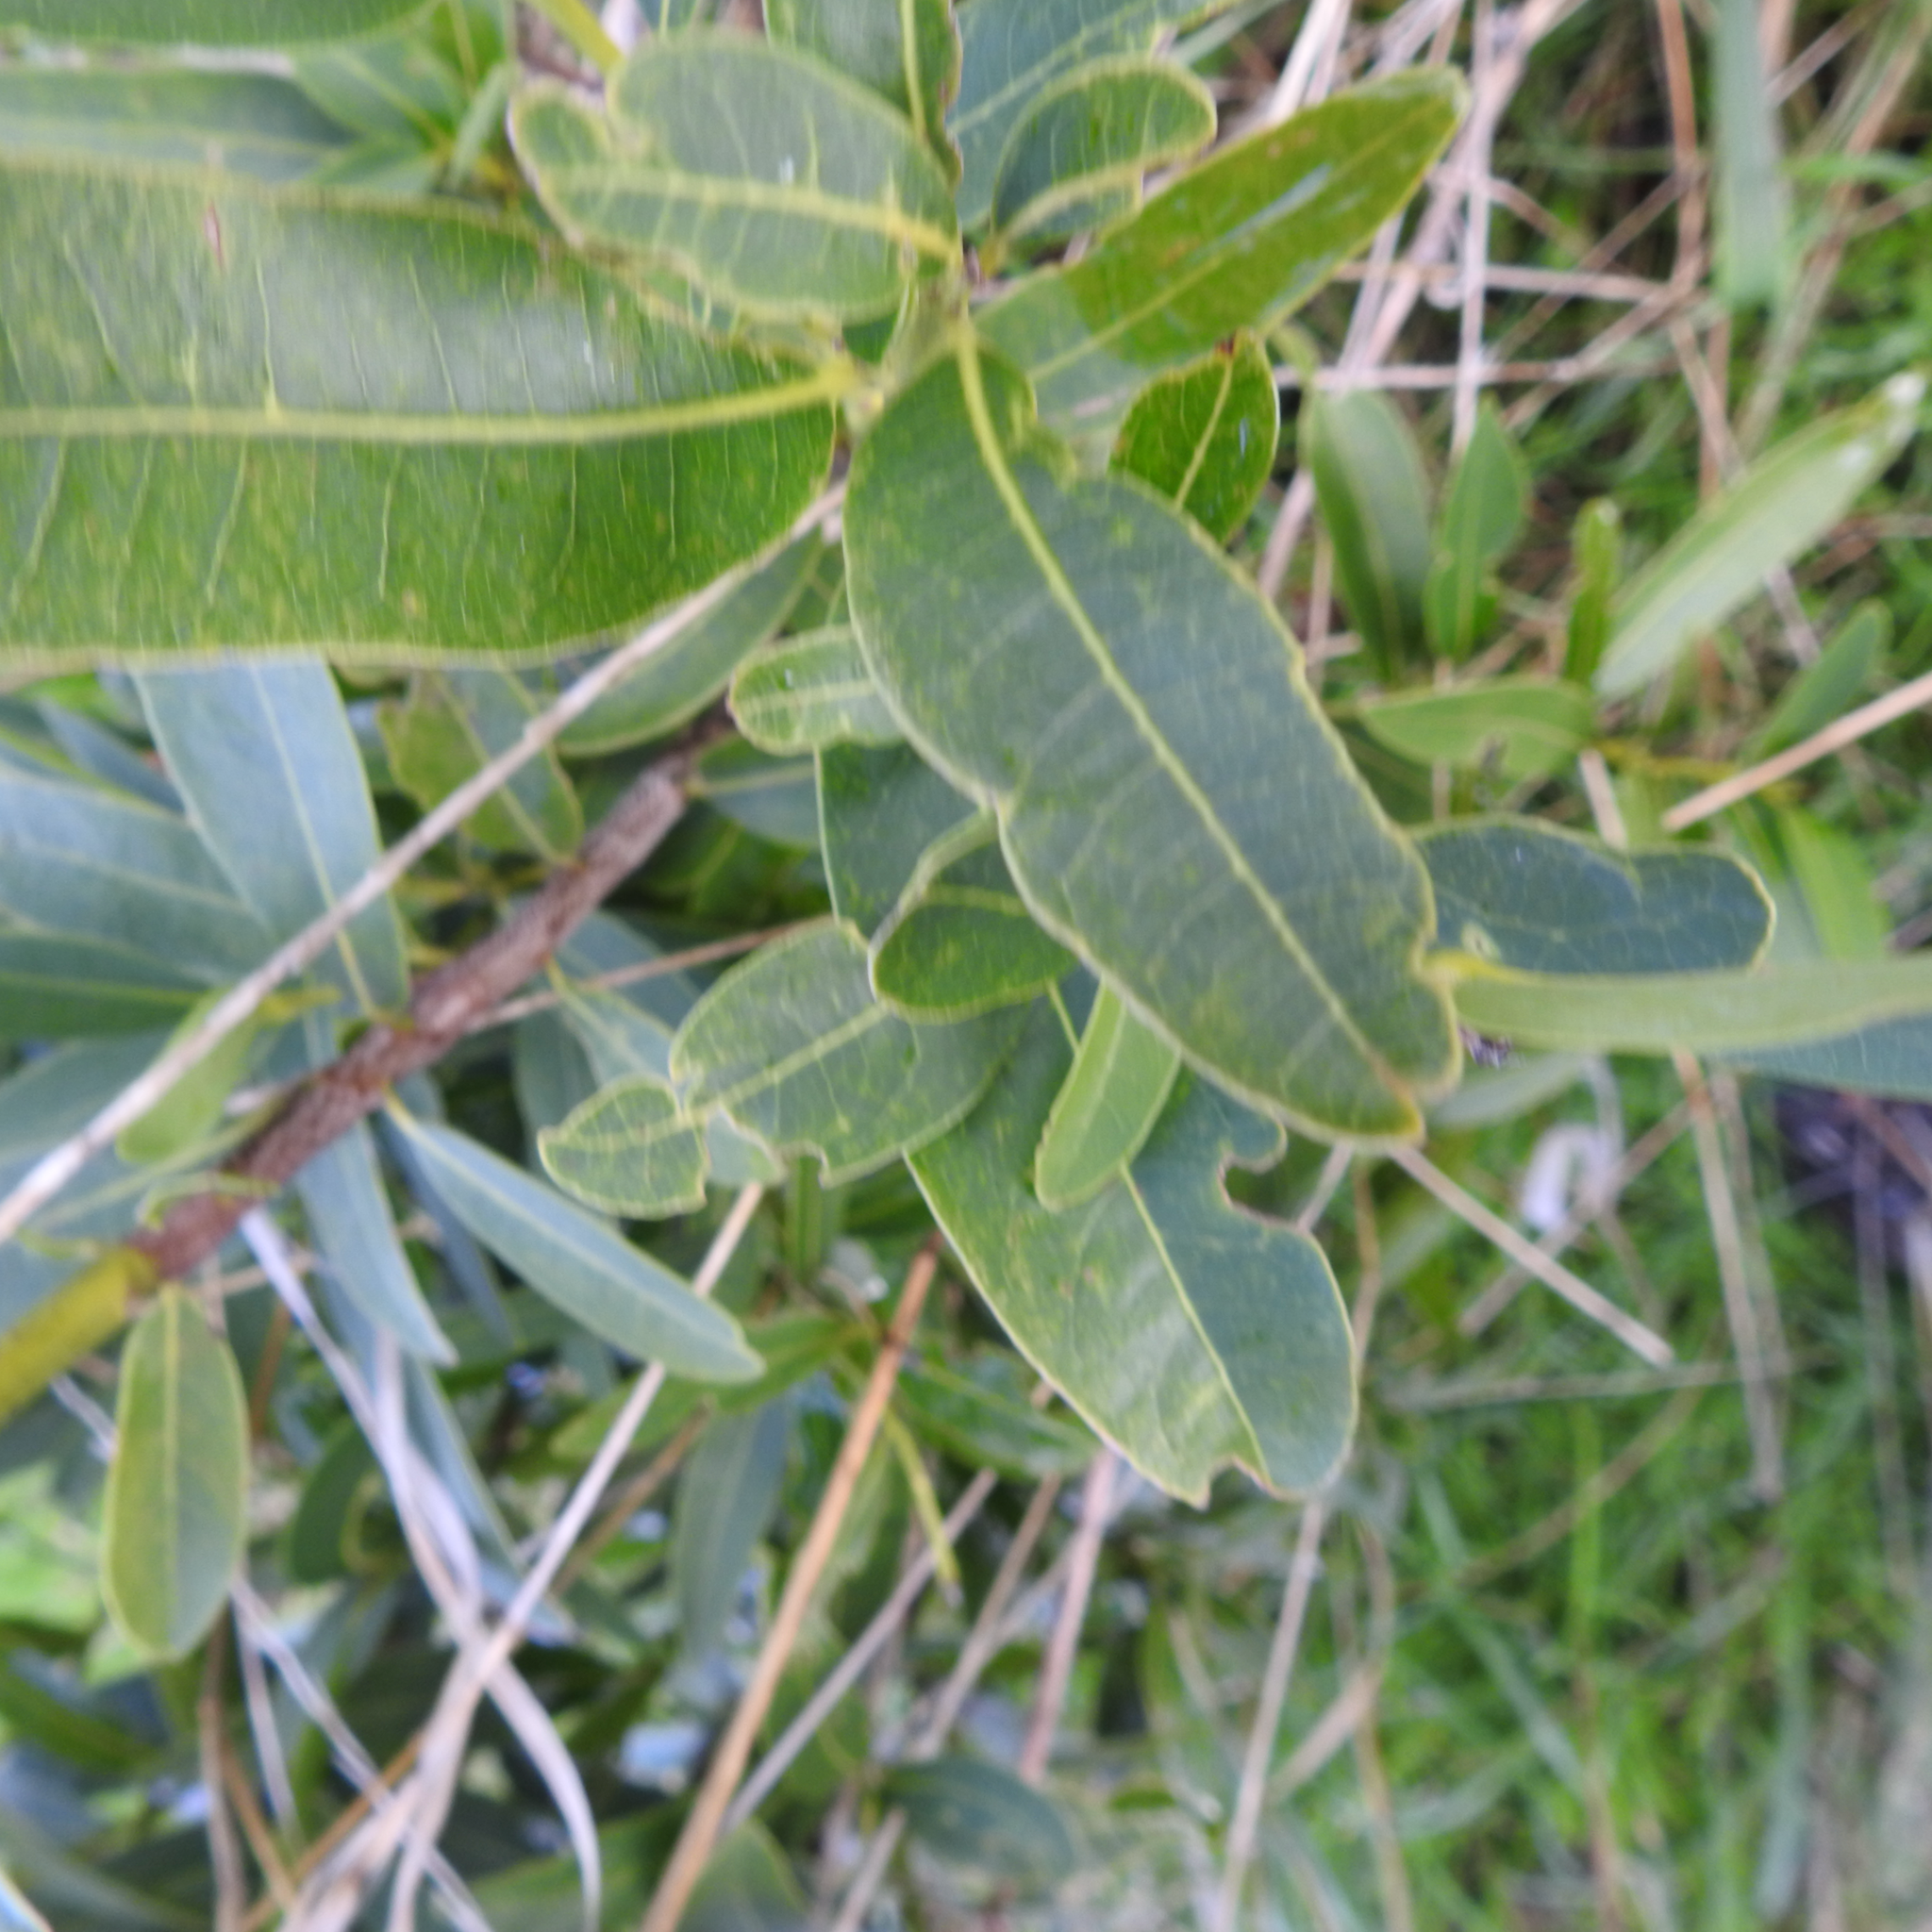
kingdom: Plantae
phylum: Tracheophyta
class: Magnoliopsida
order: Laurales
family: Lauraceae
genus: Umbellularia
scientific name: Umbellularia californica
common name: California bay
